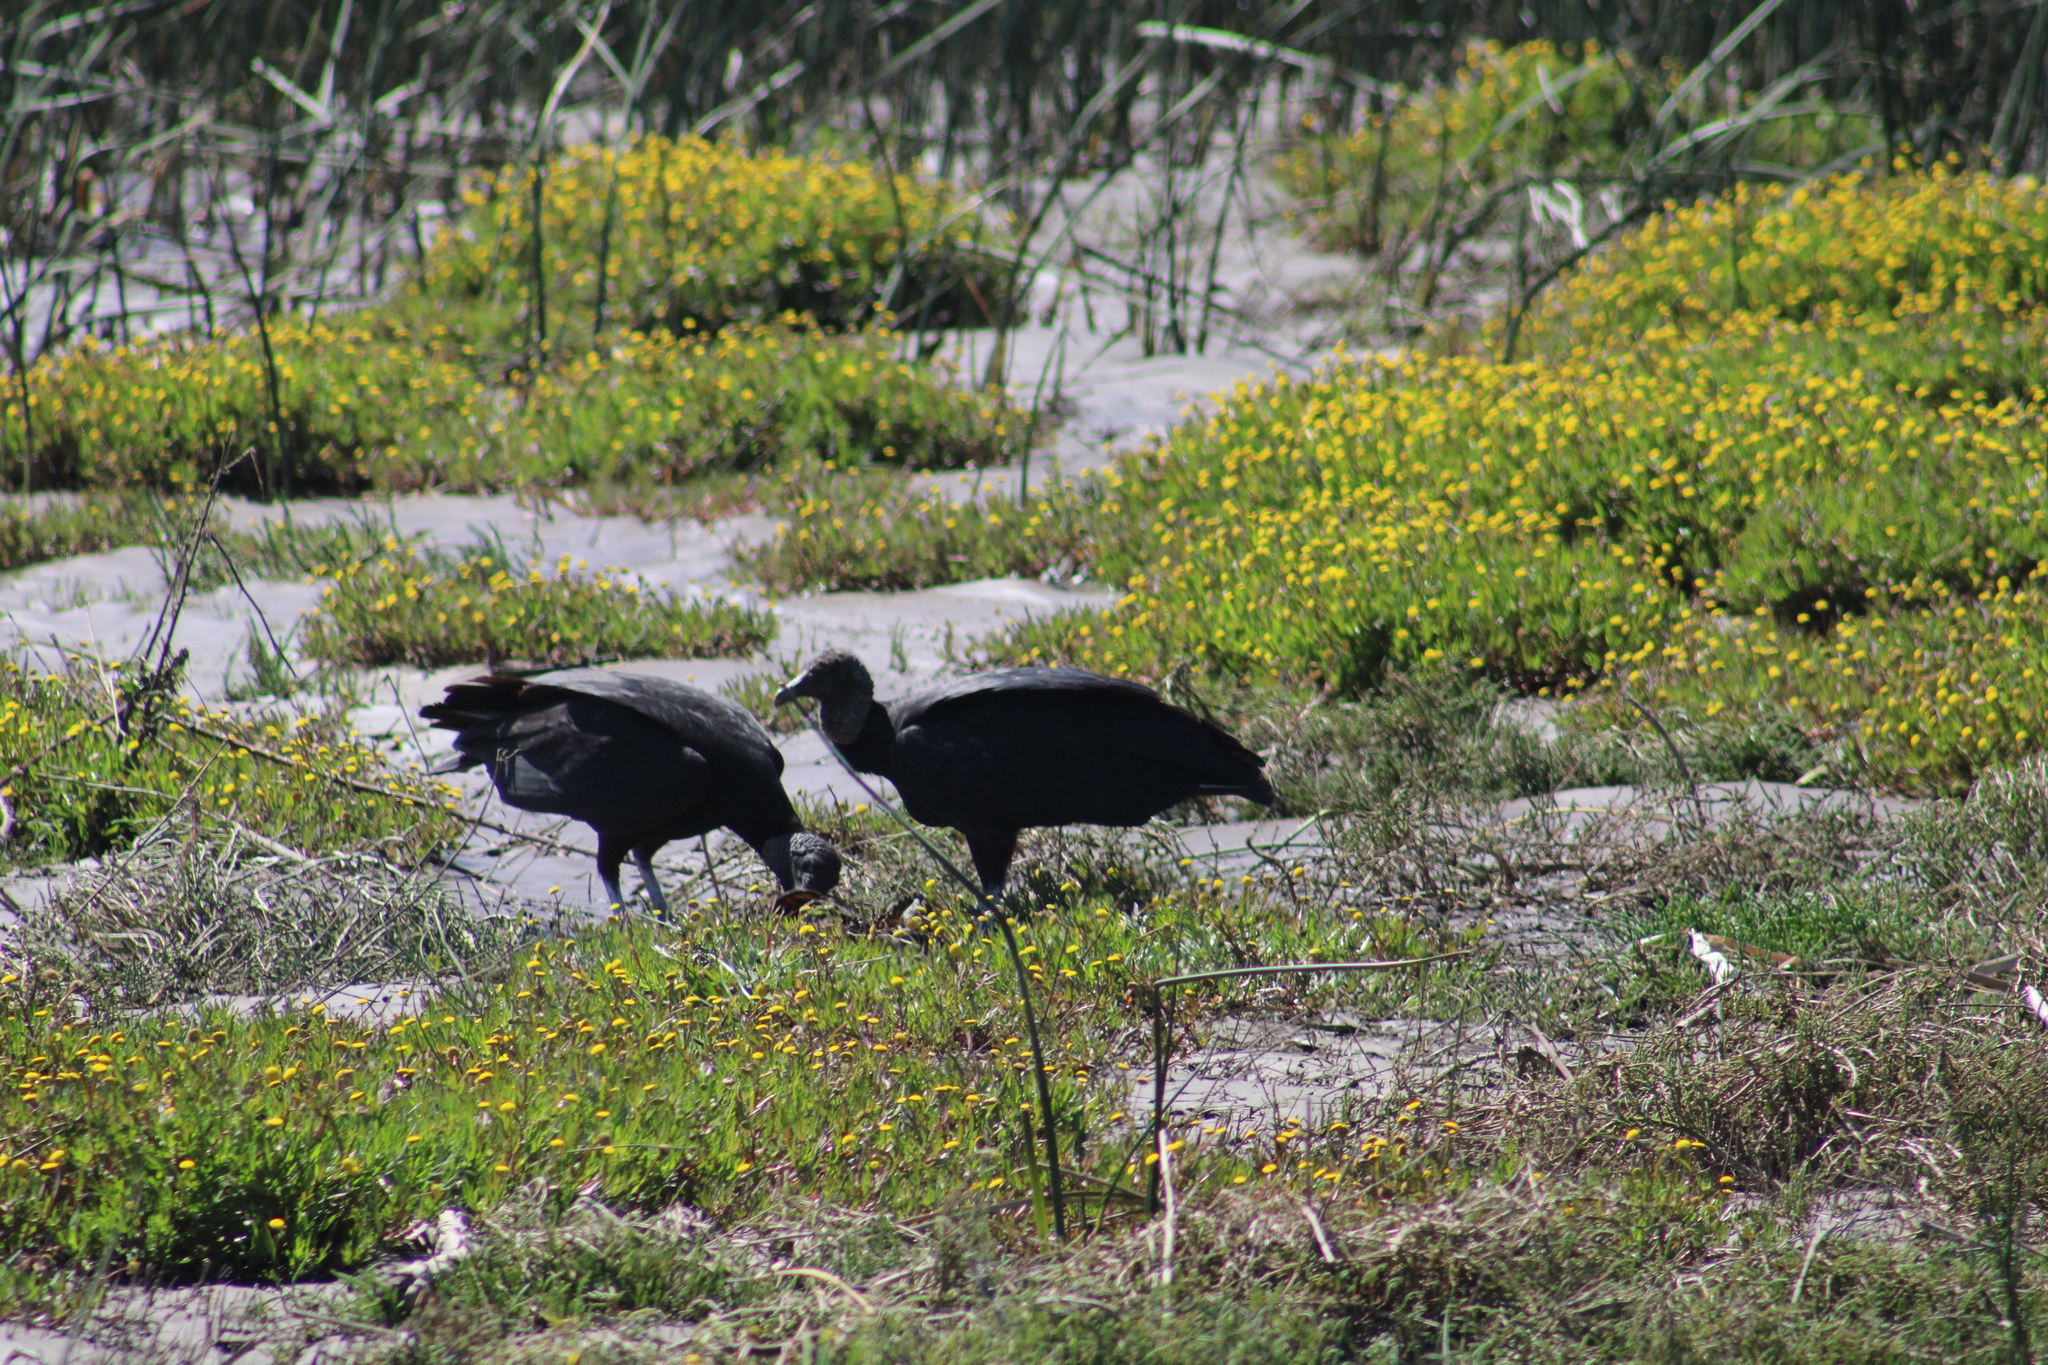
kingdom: Animalia
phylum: Chordata
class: Aves
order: Accipitriformes
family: Cathartidae
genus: Coragyps
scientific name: Coragyps atratus
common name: Black vulture
